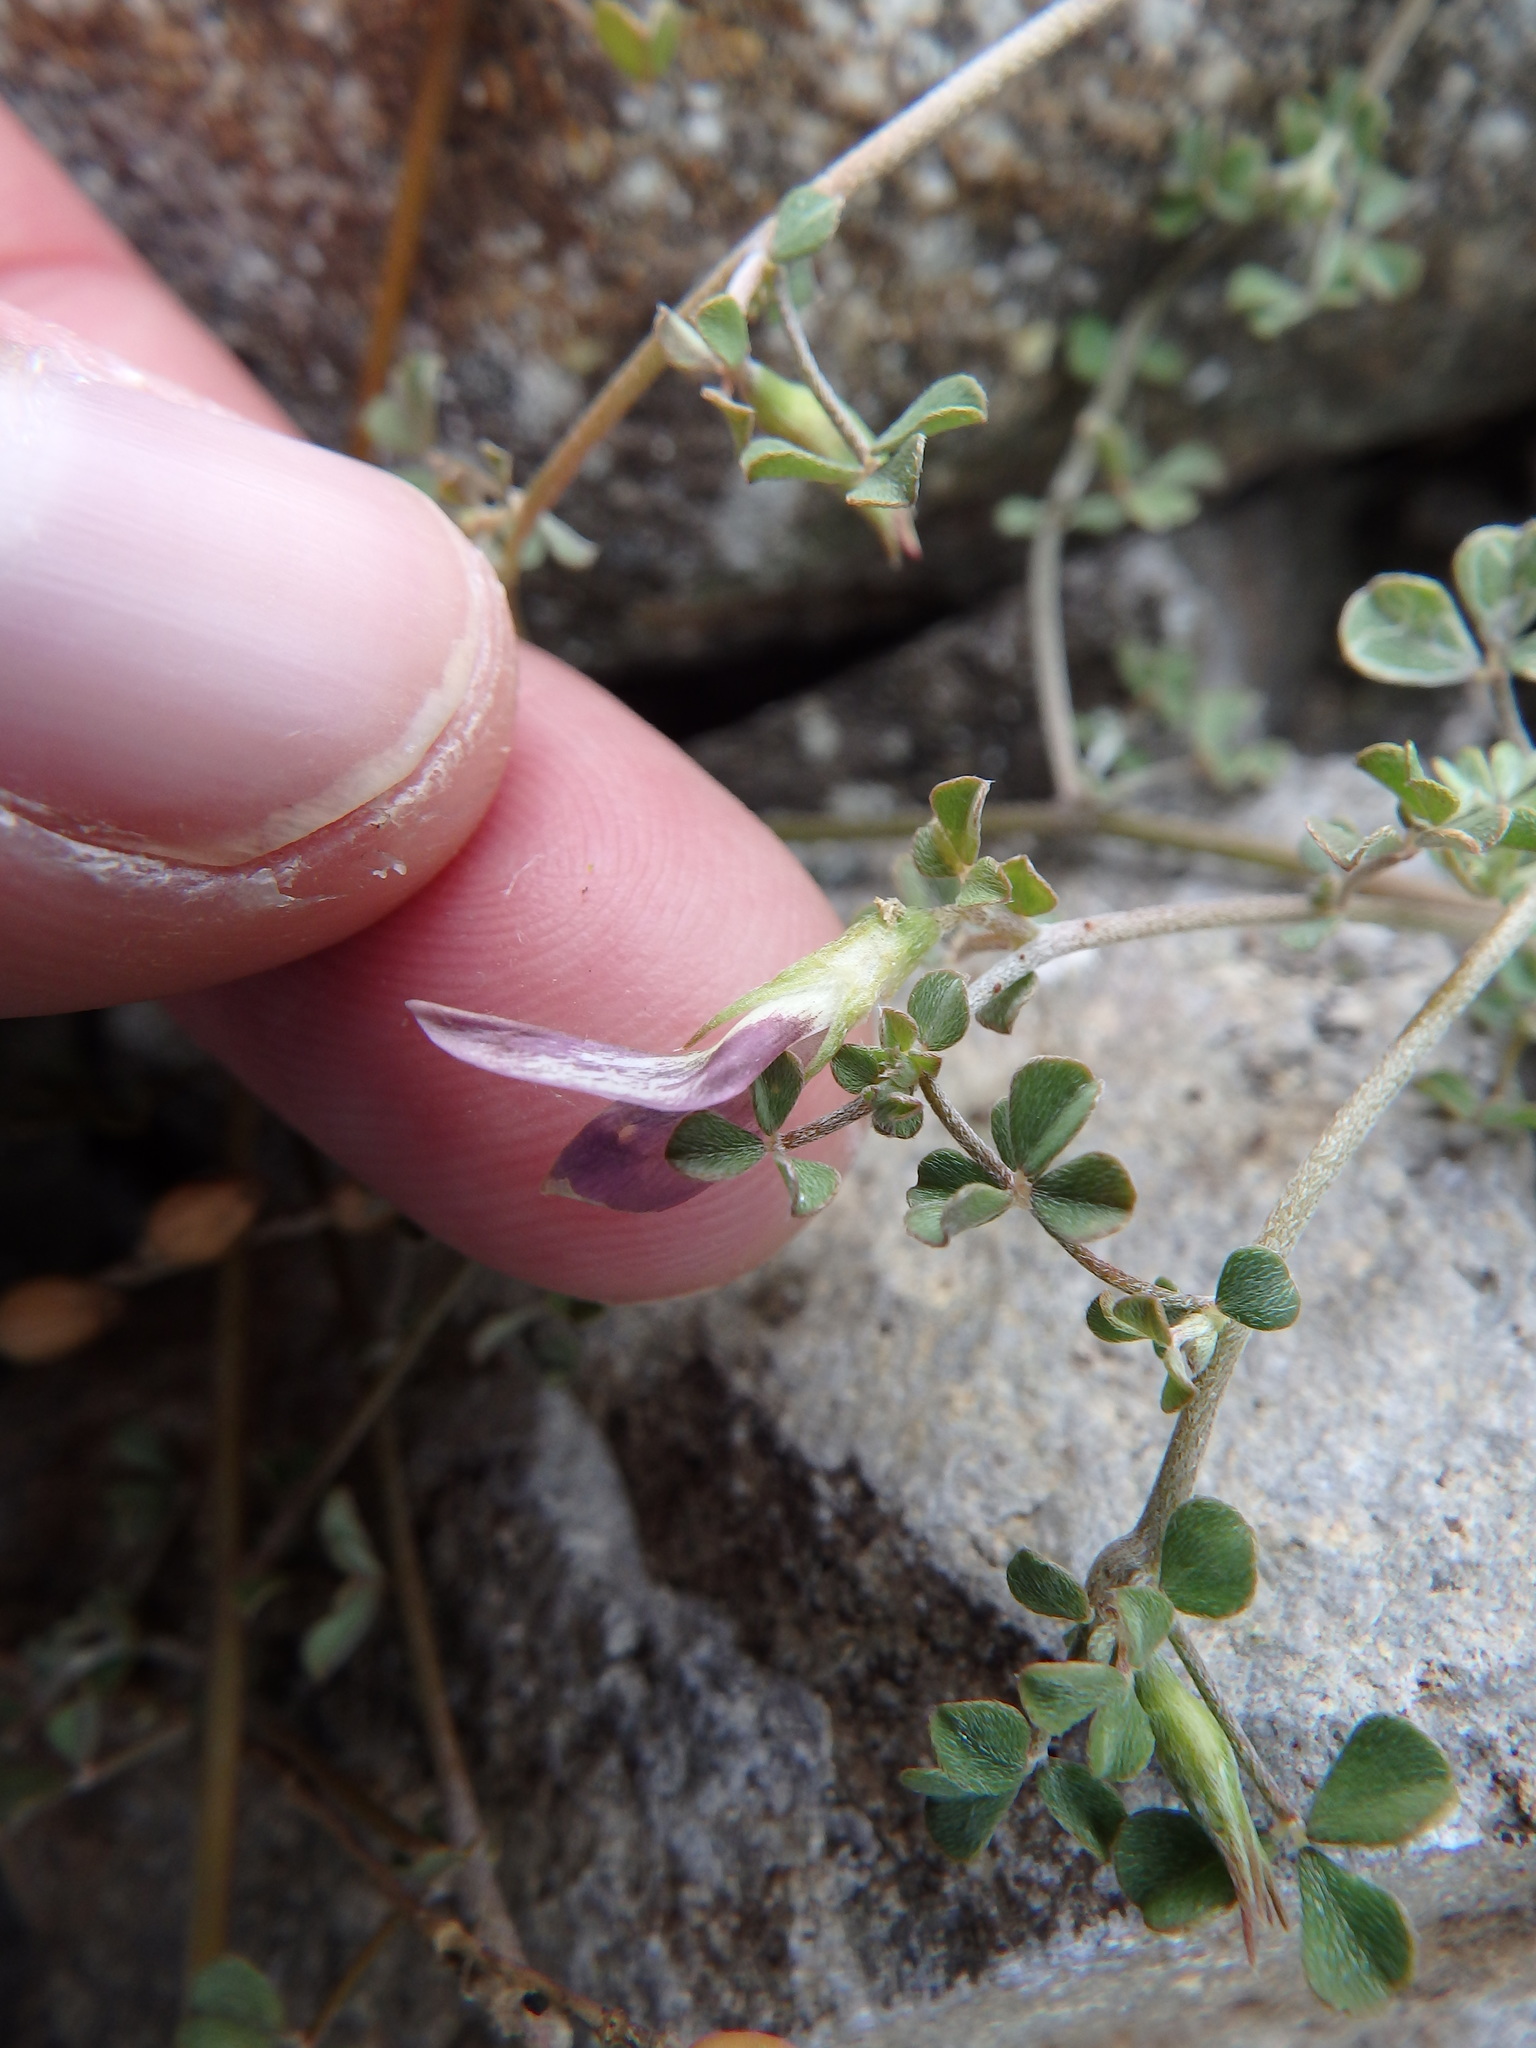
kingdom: Plantae
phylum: Tracheophyta
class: Magnoliopsida
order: Fabales
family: Fabaceae
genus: Lotus
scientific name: Lotus macranthus
